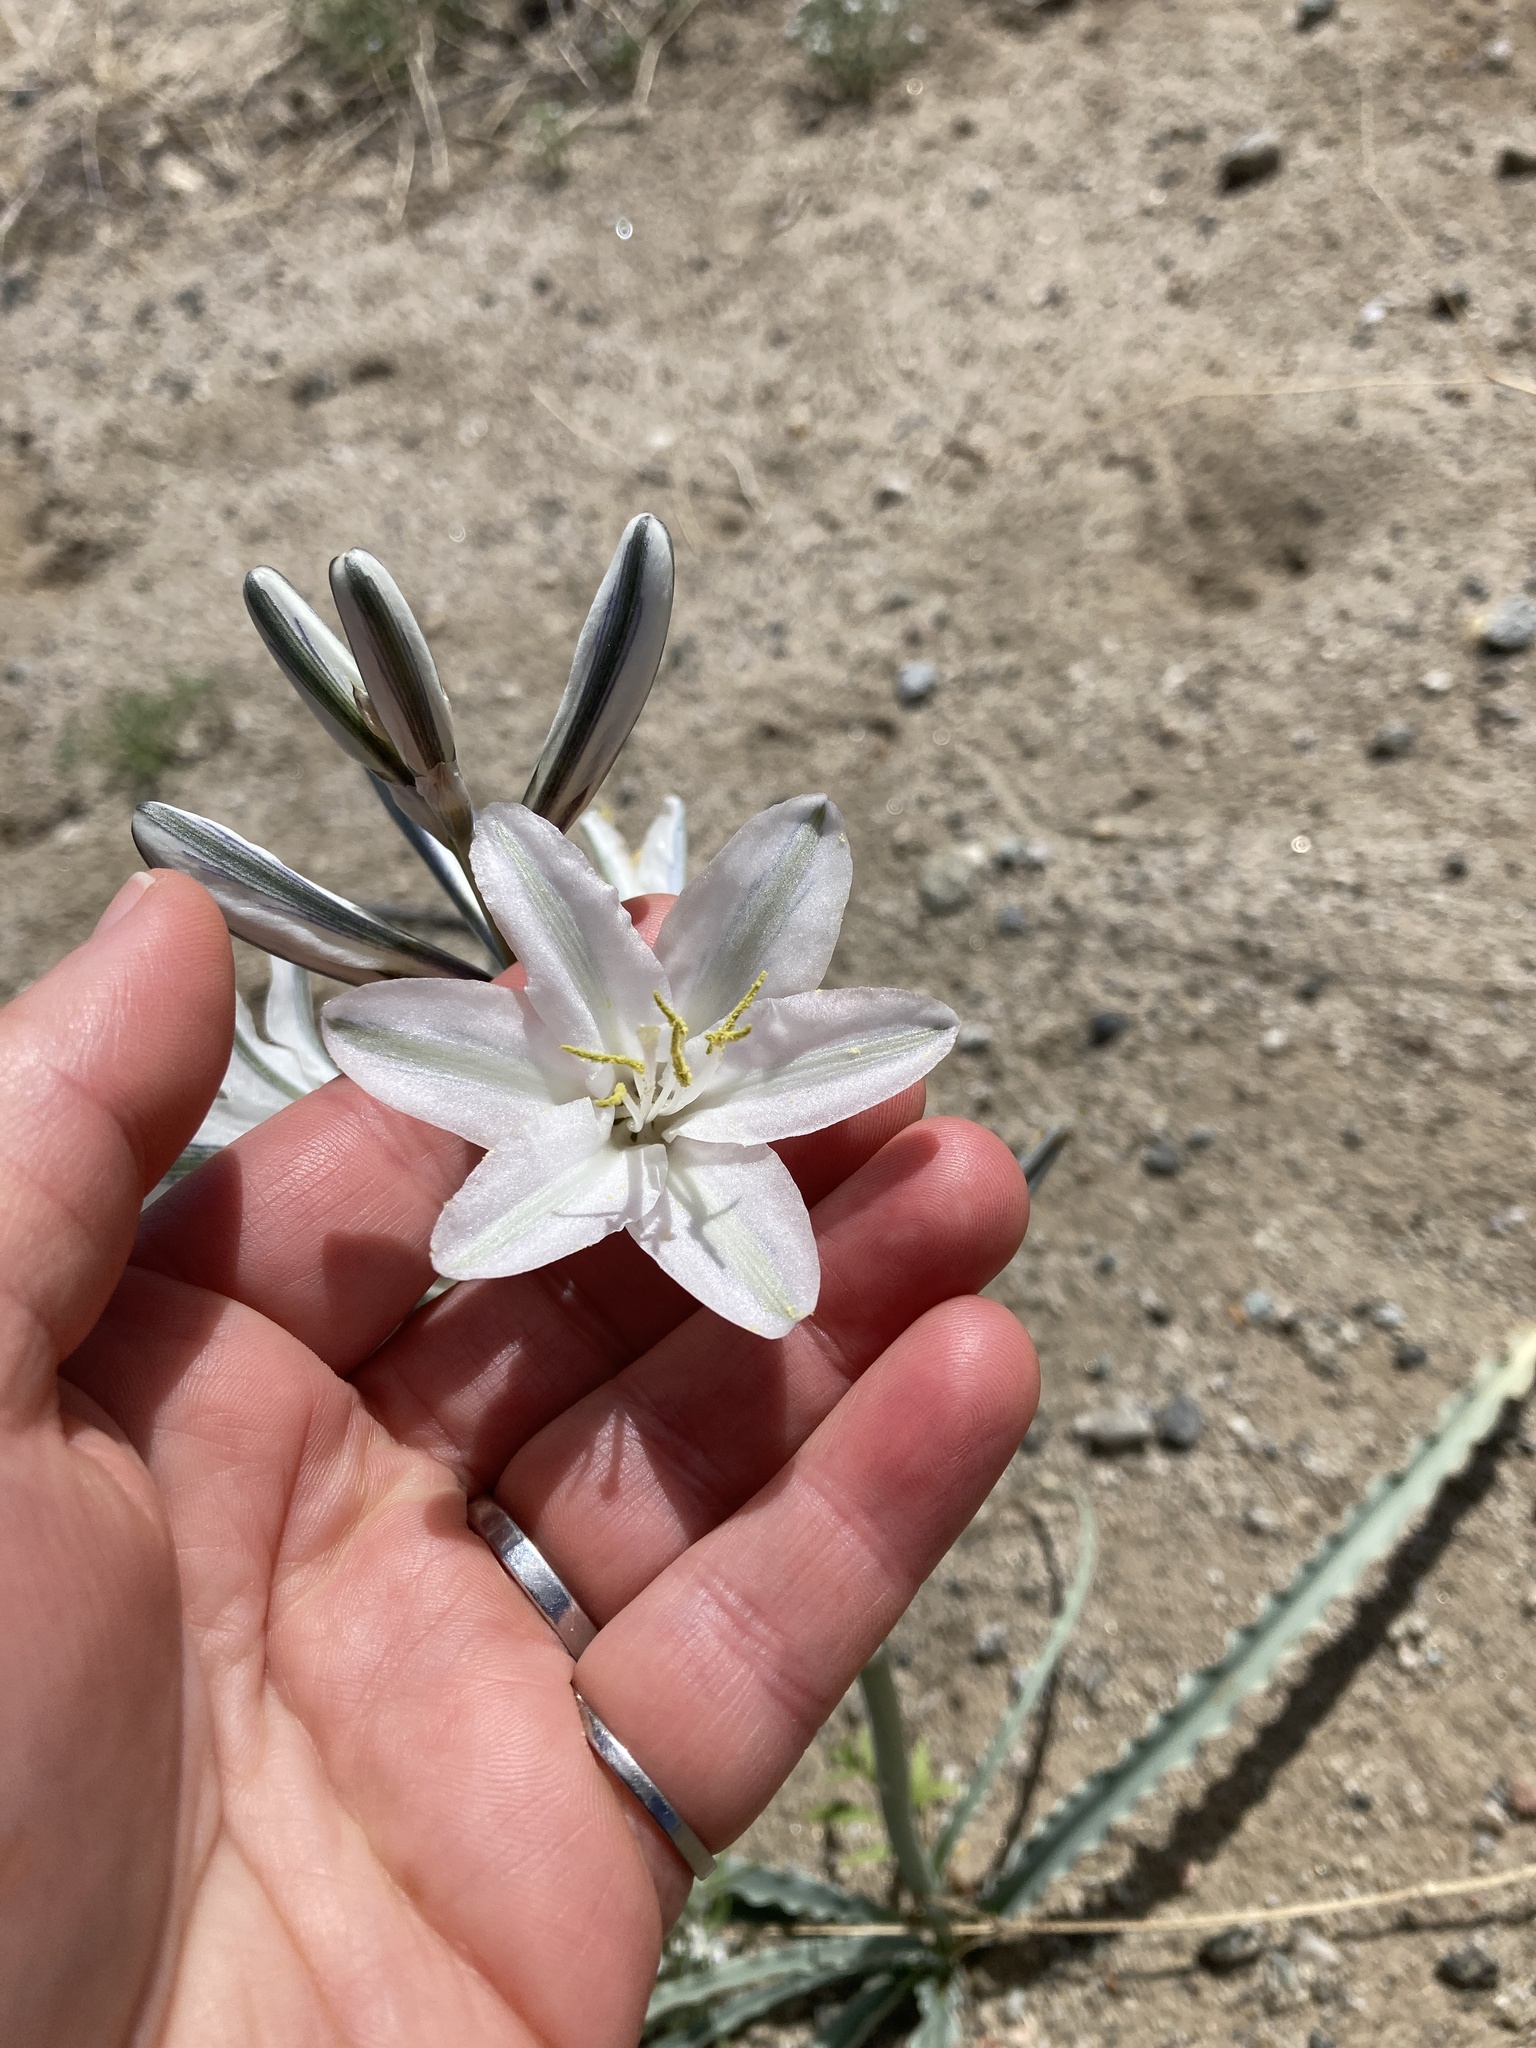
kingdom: Plantae
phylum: Tracheophyta
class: Liliopsida
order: Asparagales
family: Asparagaceae
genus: Hesperocallis
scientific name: Hesperocallis undulata
